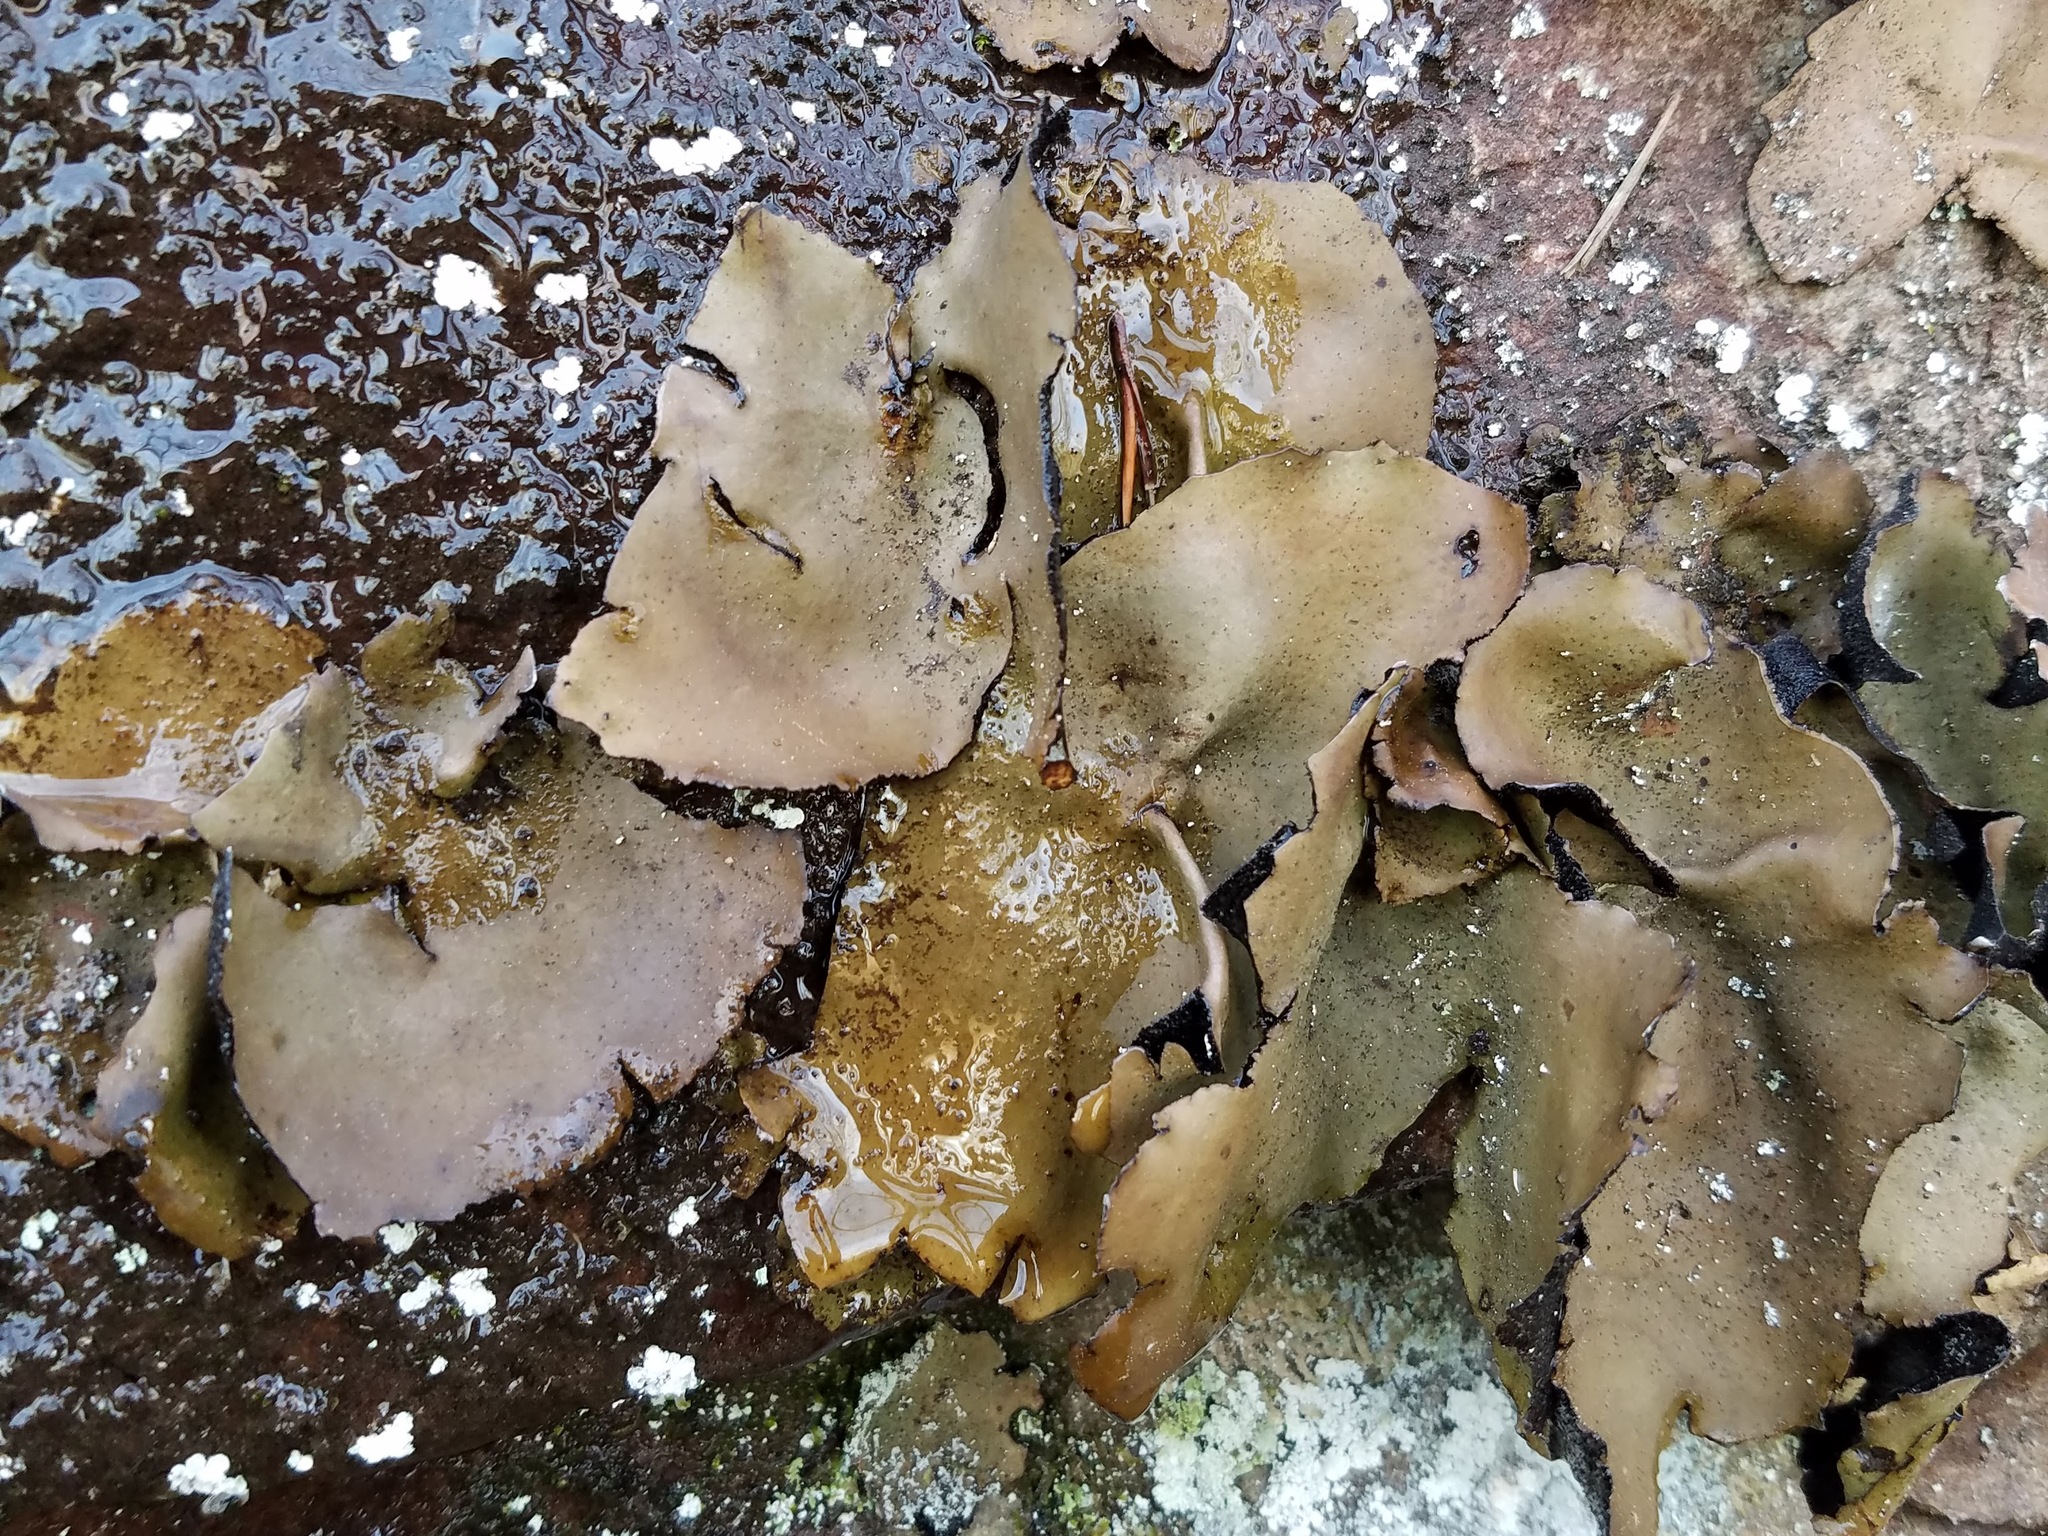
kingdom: Fungi
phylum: Ascomycota
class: Lecanoromycetes
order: Umbilicariales
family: Umbilicariaceae
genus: Umbilicaria
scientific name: Umbilicaria mammulata
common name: Smooth rock tripe
